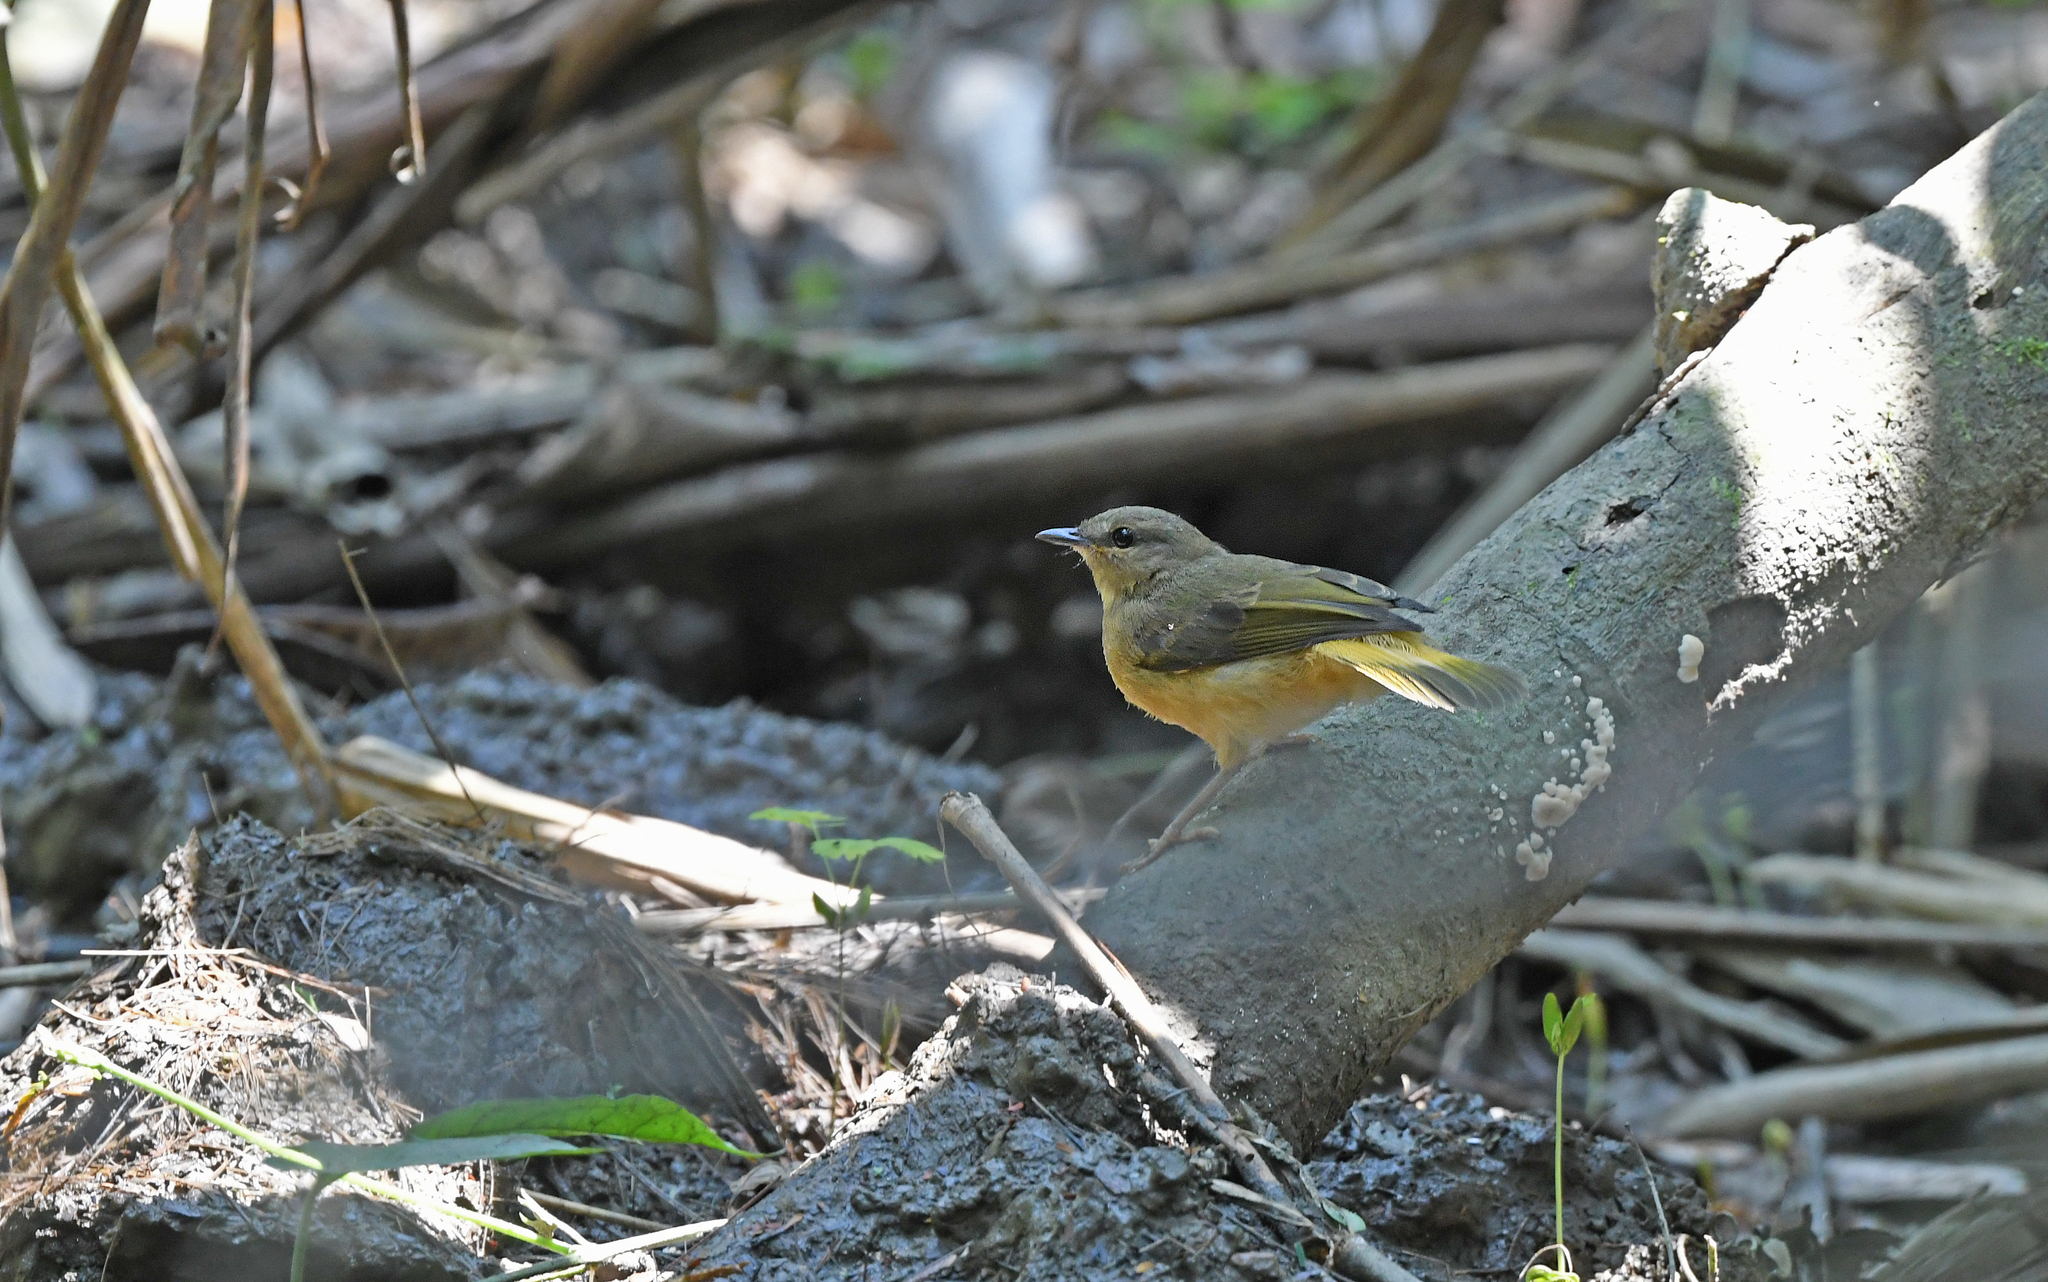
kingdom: Animalia
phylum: Chordata
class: Aves
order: Passeriformes
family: Parulidae
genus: Myiothlypis
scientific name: Myiothlypis fulvicauda
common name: Buff-rumped warbler
